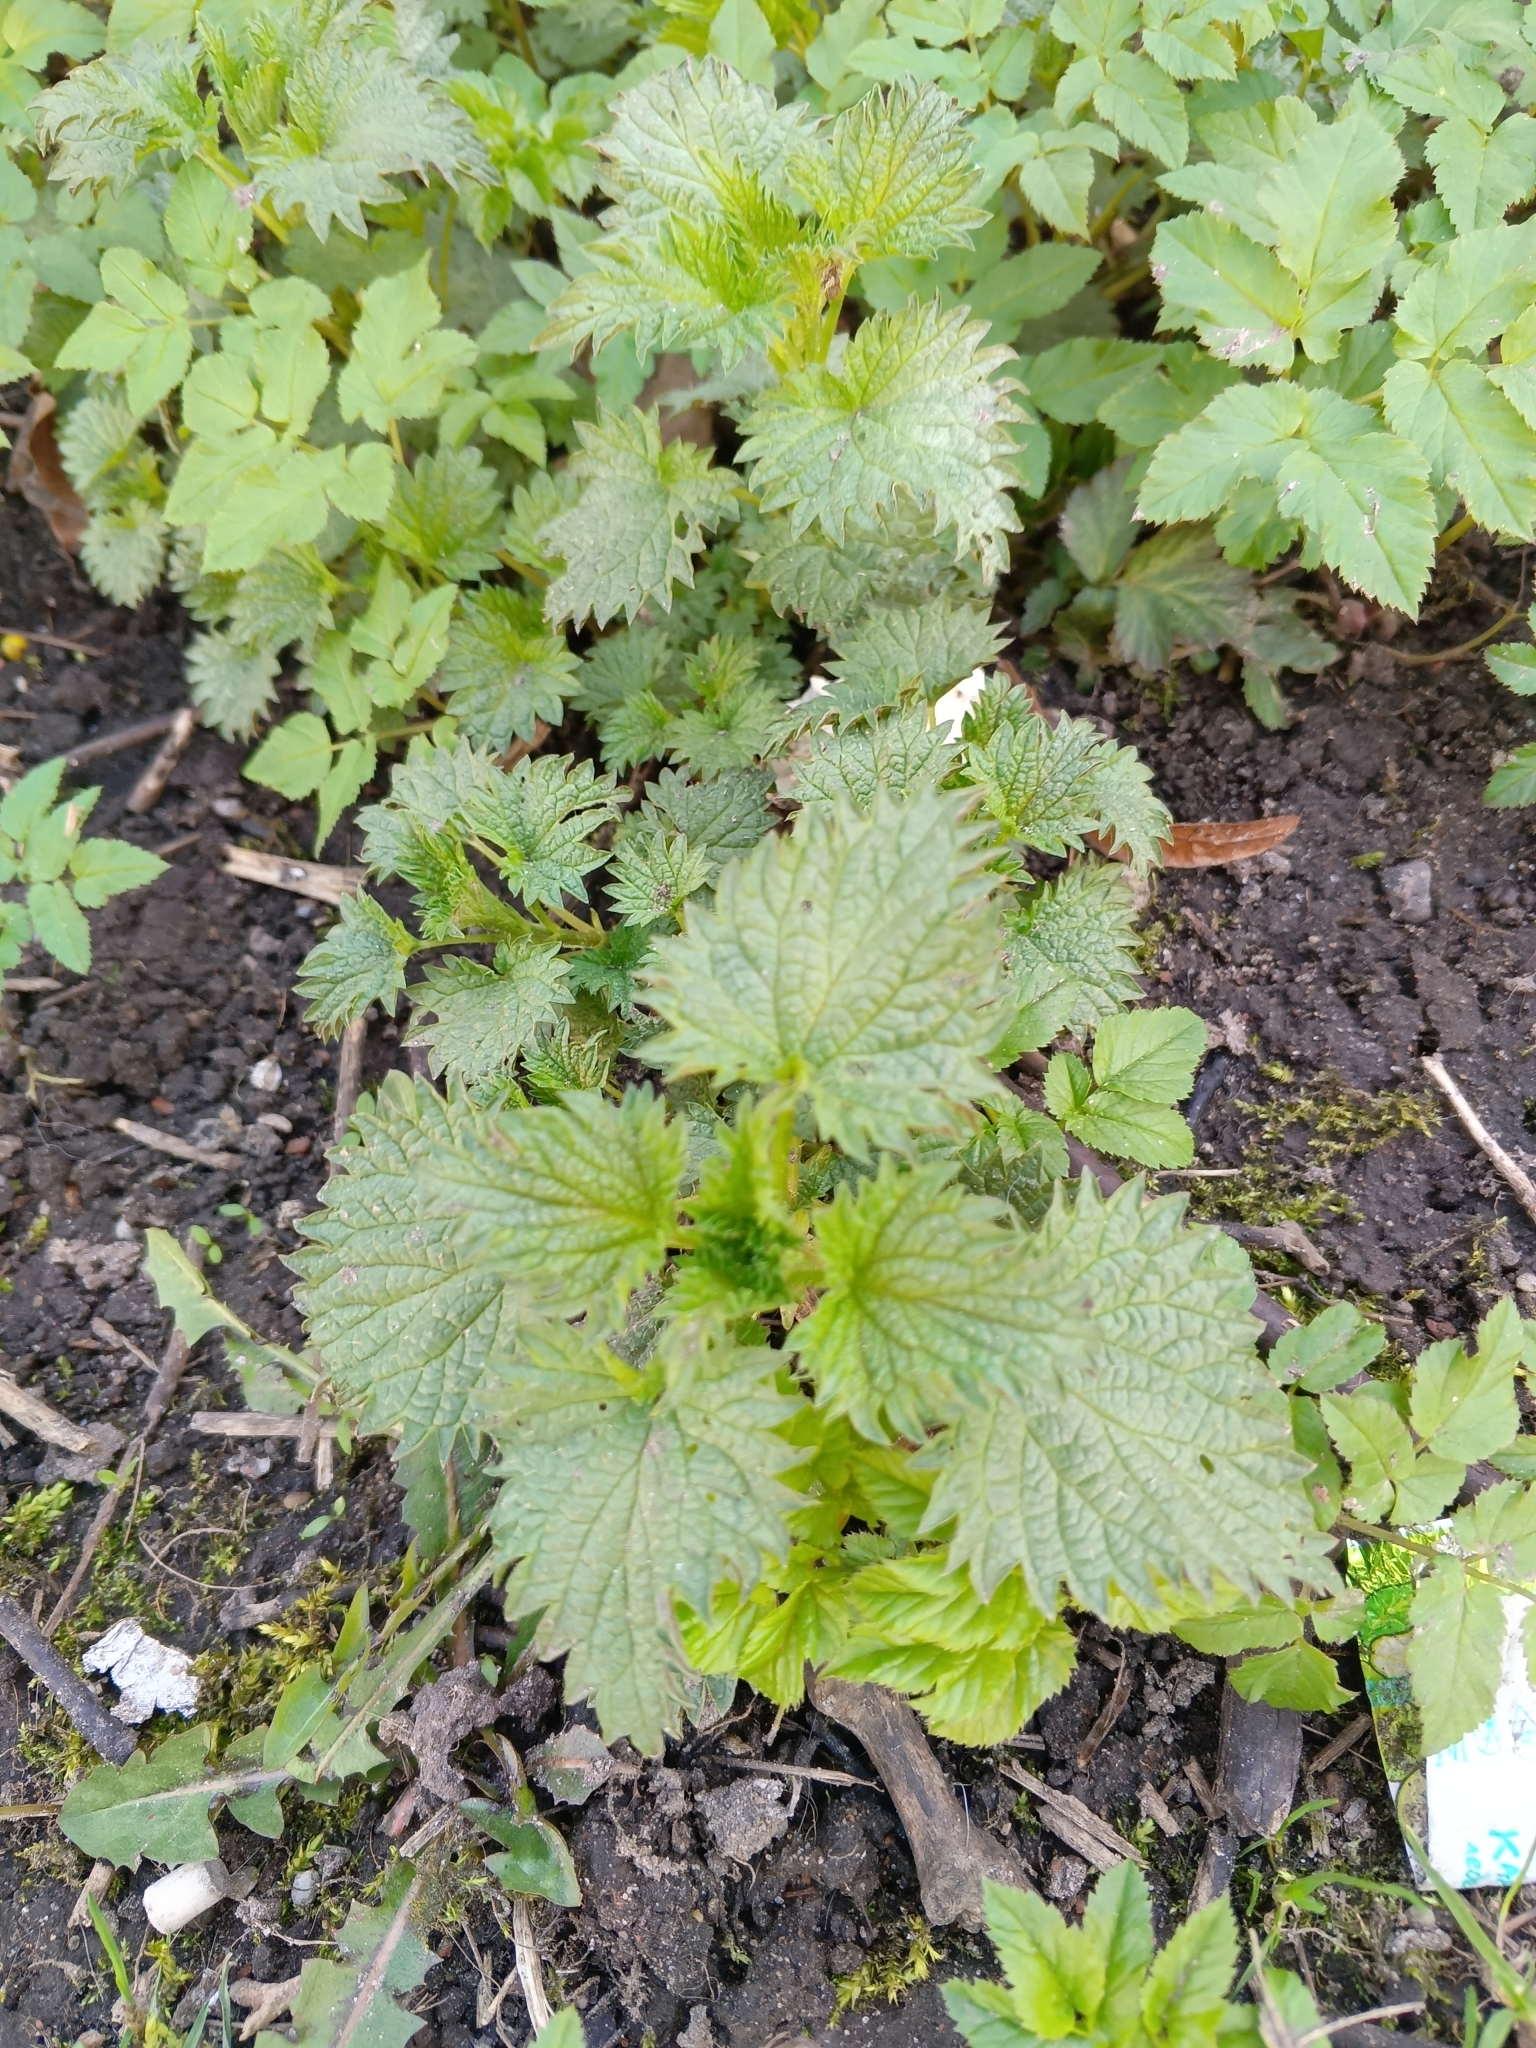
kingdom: Plantae
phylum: Tracheophyta
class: Magnoliopsida
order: Rosales
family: Urticaceae
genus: Urtica
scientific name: Urtica dioica
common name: Common nettle
